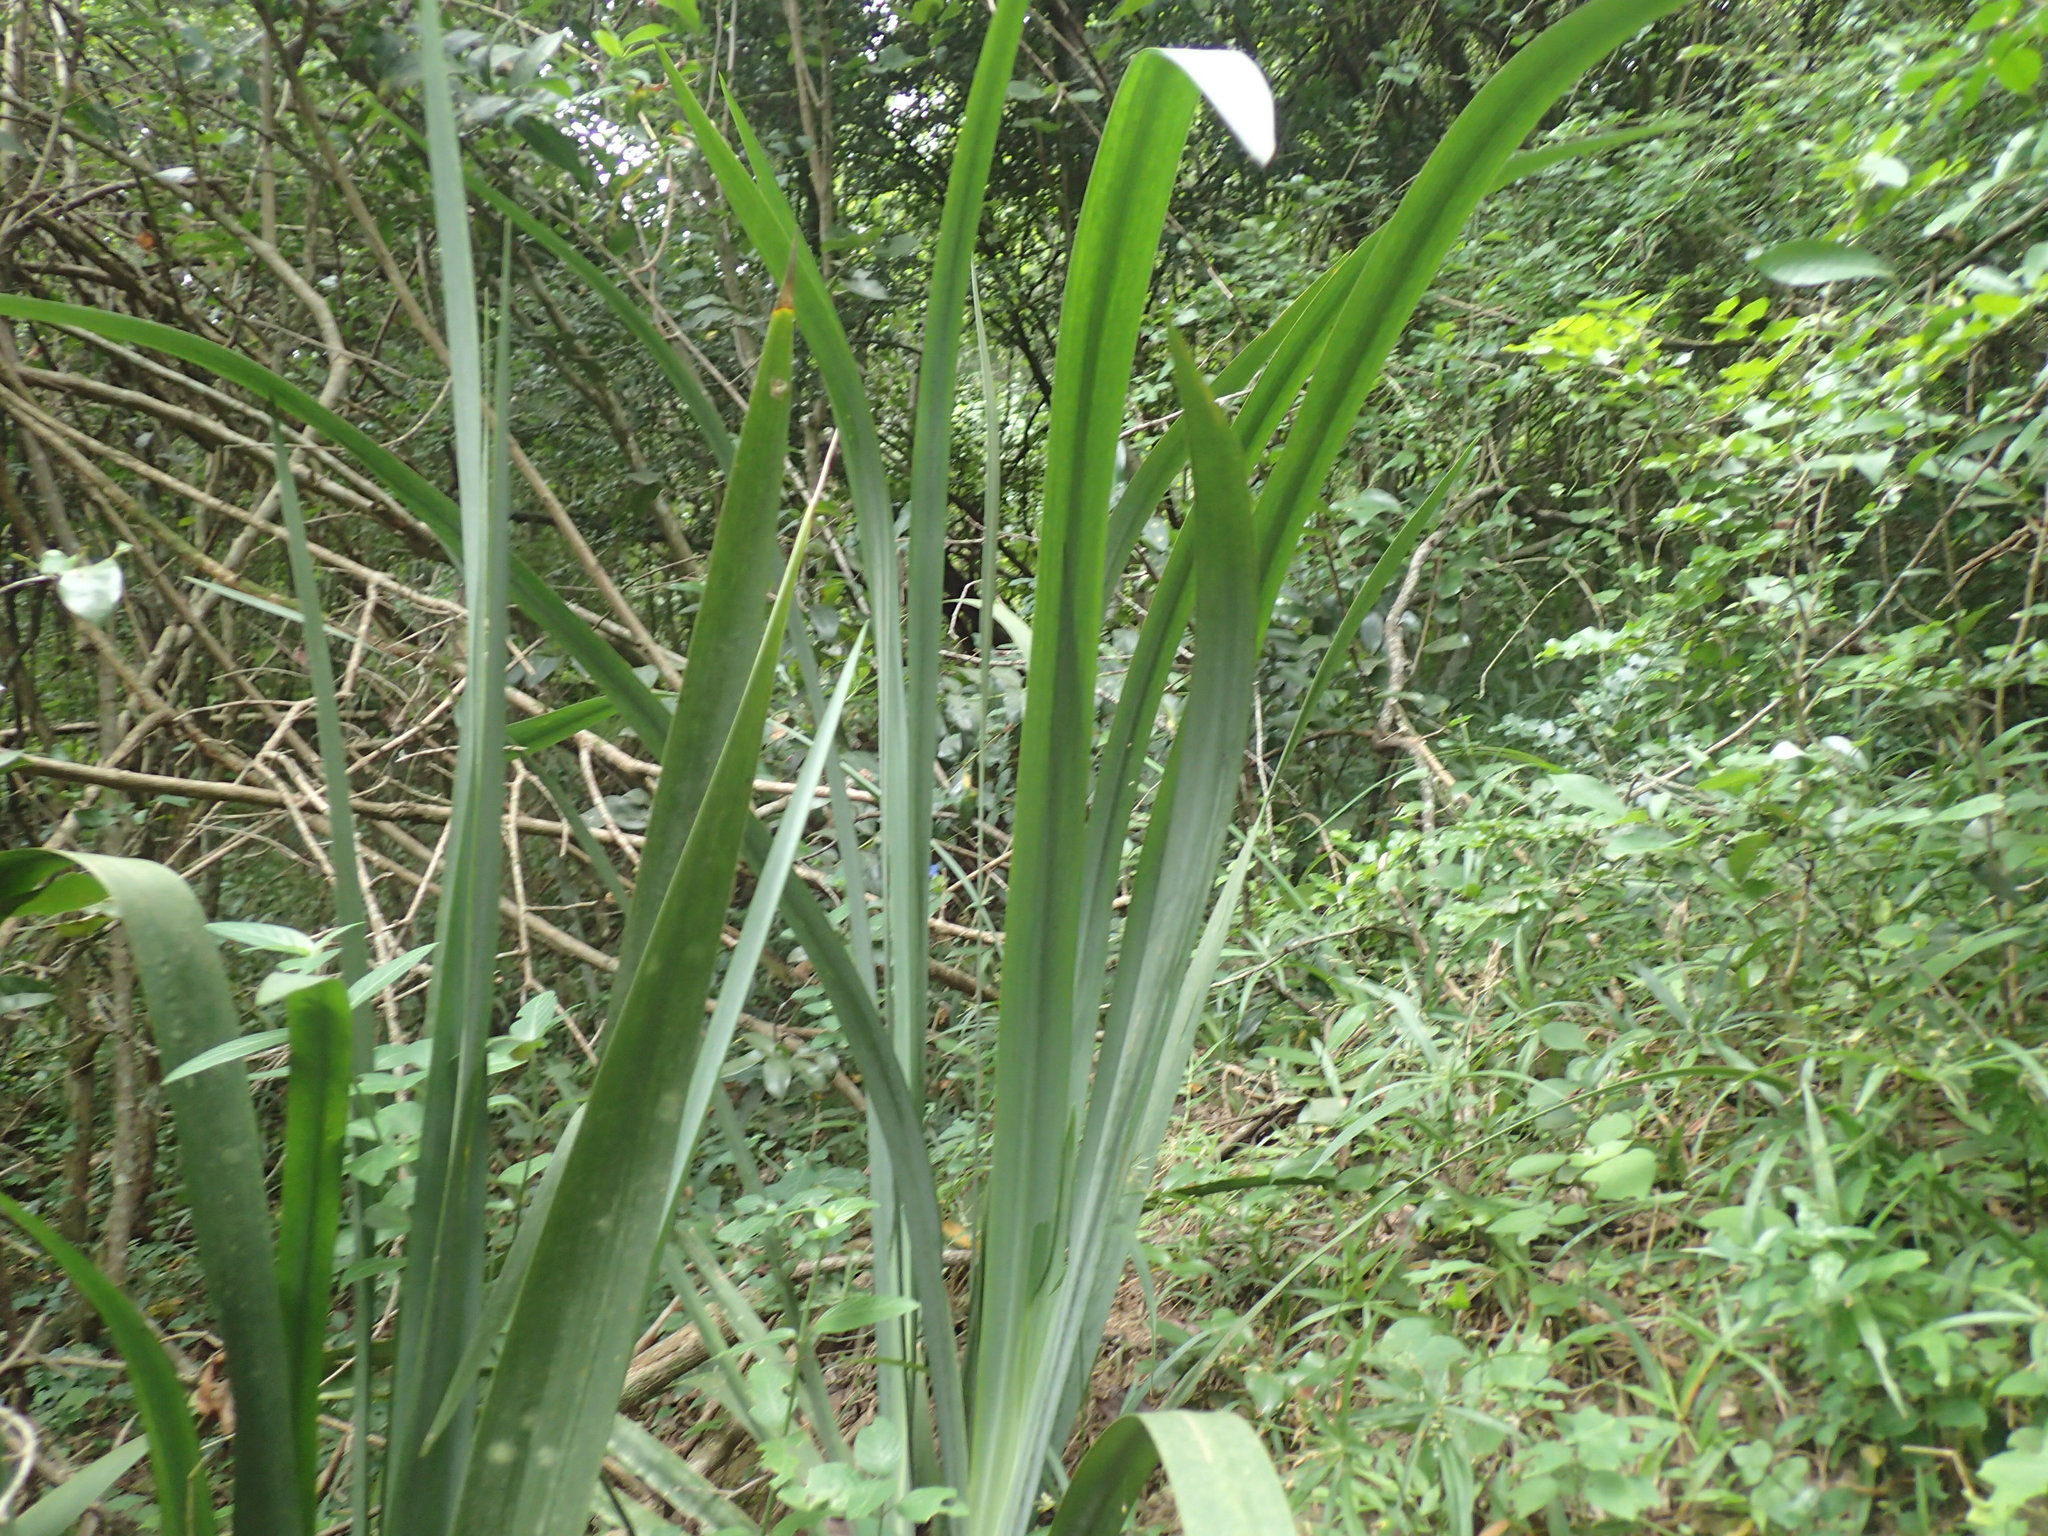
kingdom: Plantae
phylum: Tracheophyta
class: Liliopsida
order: Asparagales
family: Iridaceae
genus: Dietes
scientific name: Dietes butcheriana
